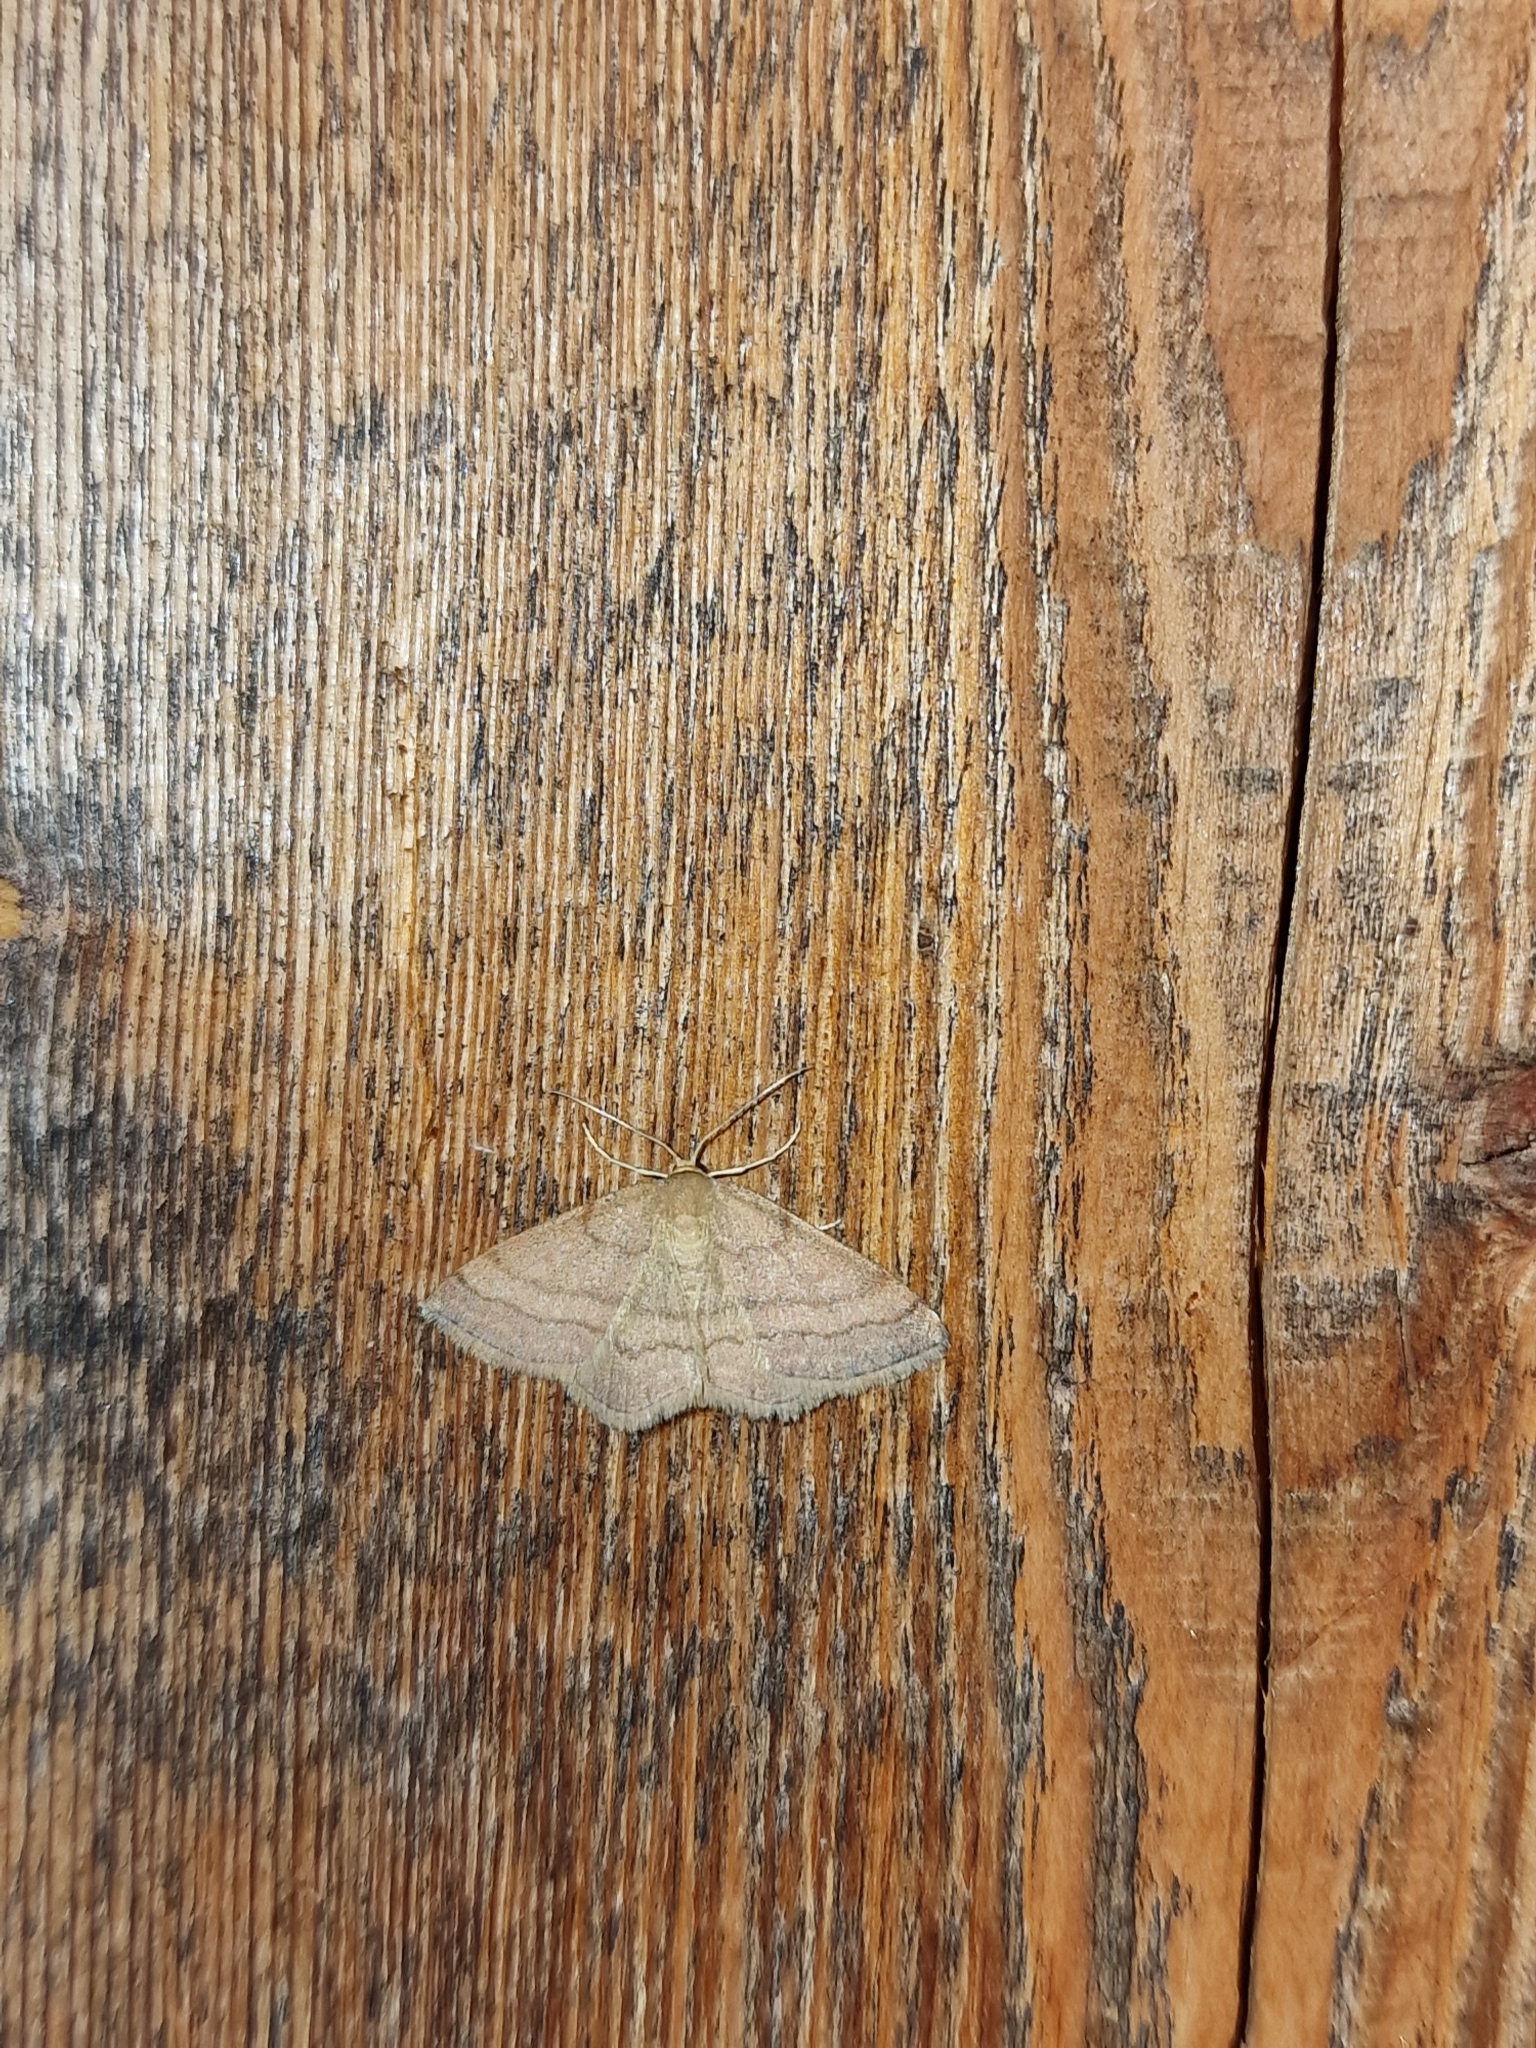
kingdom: Animalia
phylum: Arthropoda
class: Insecta
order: Lepidoptera
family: Geometridae
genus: Scopula
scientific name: Scopula rubiginata
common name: Tawny wave
